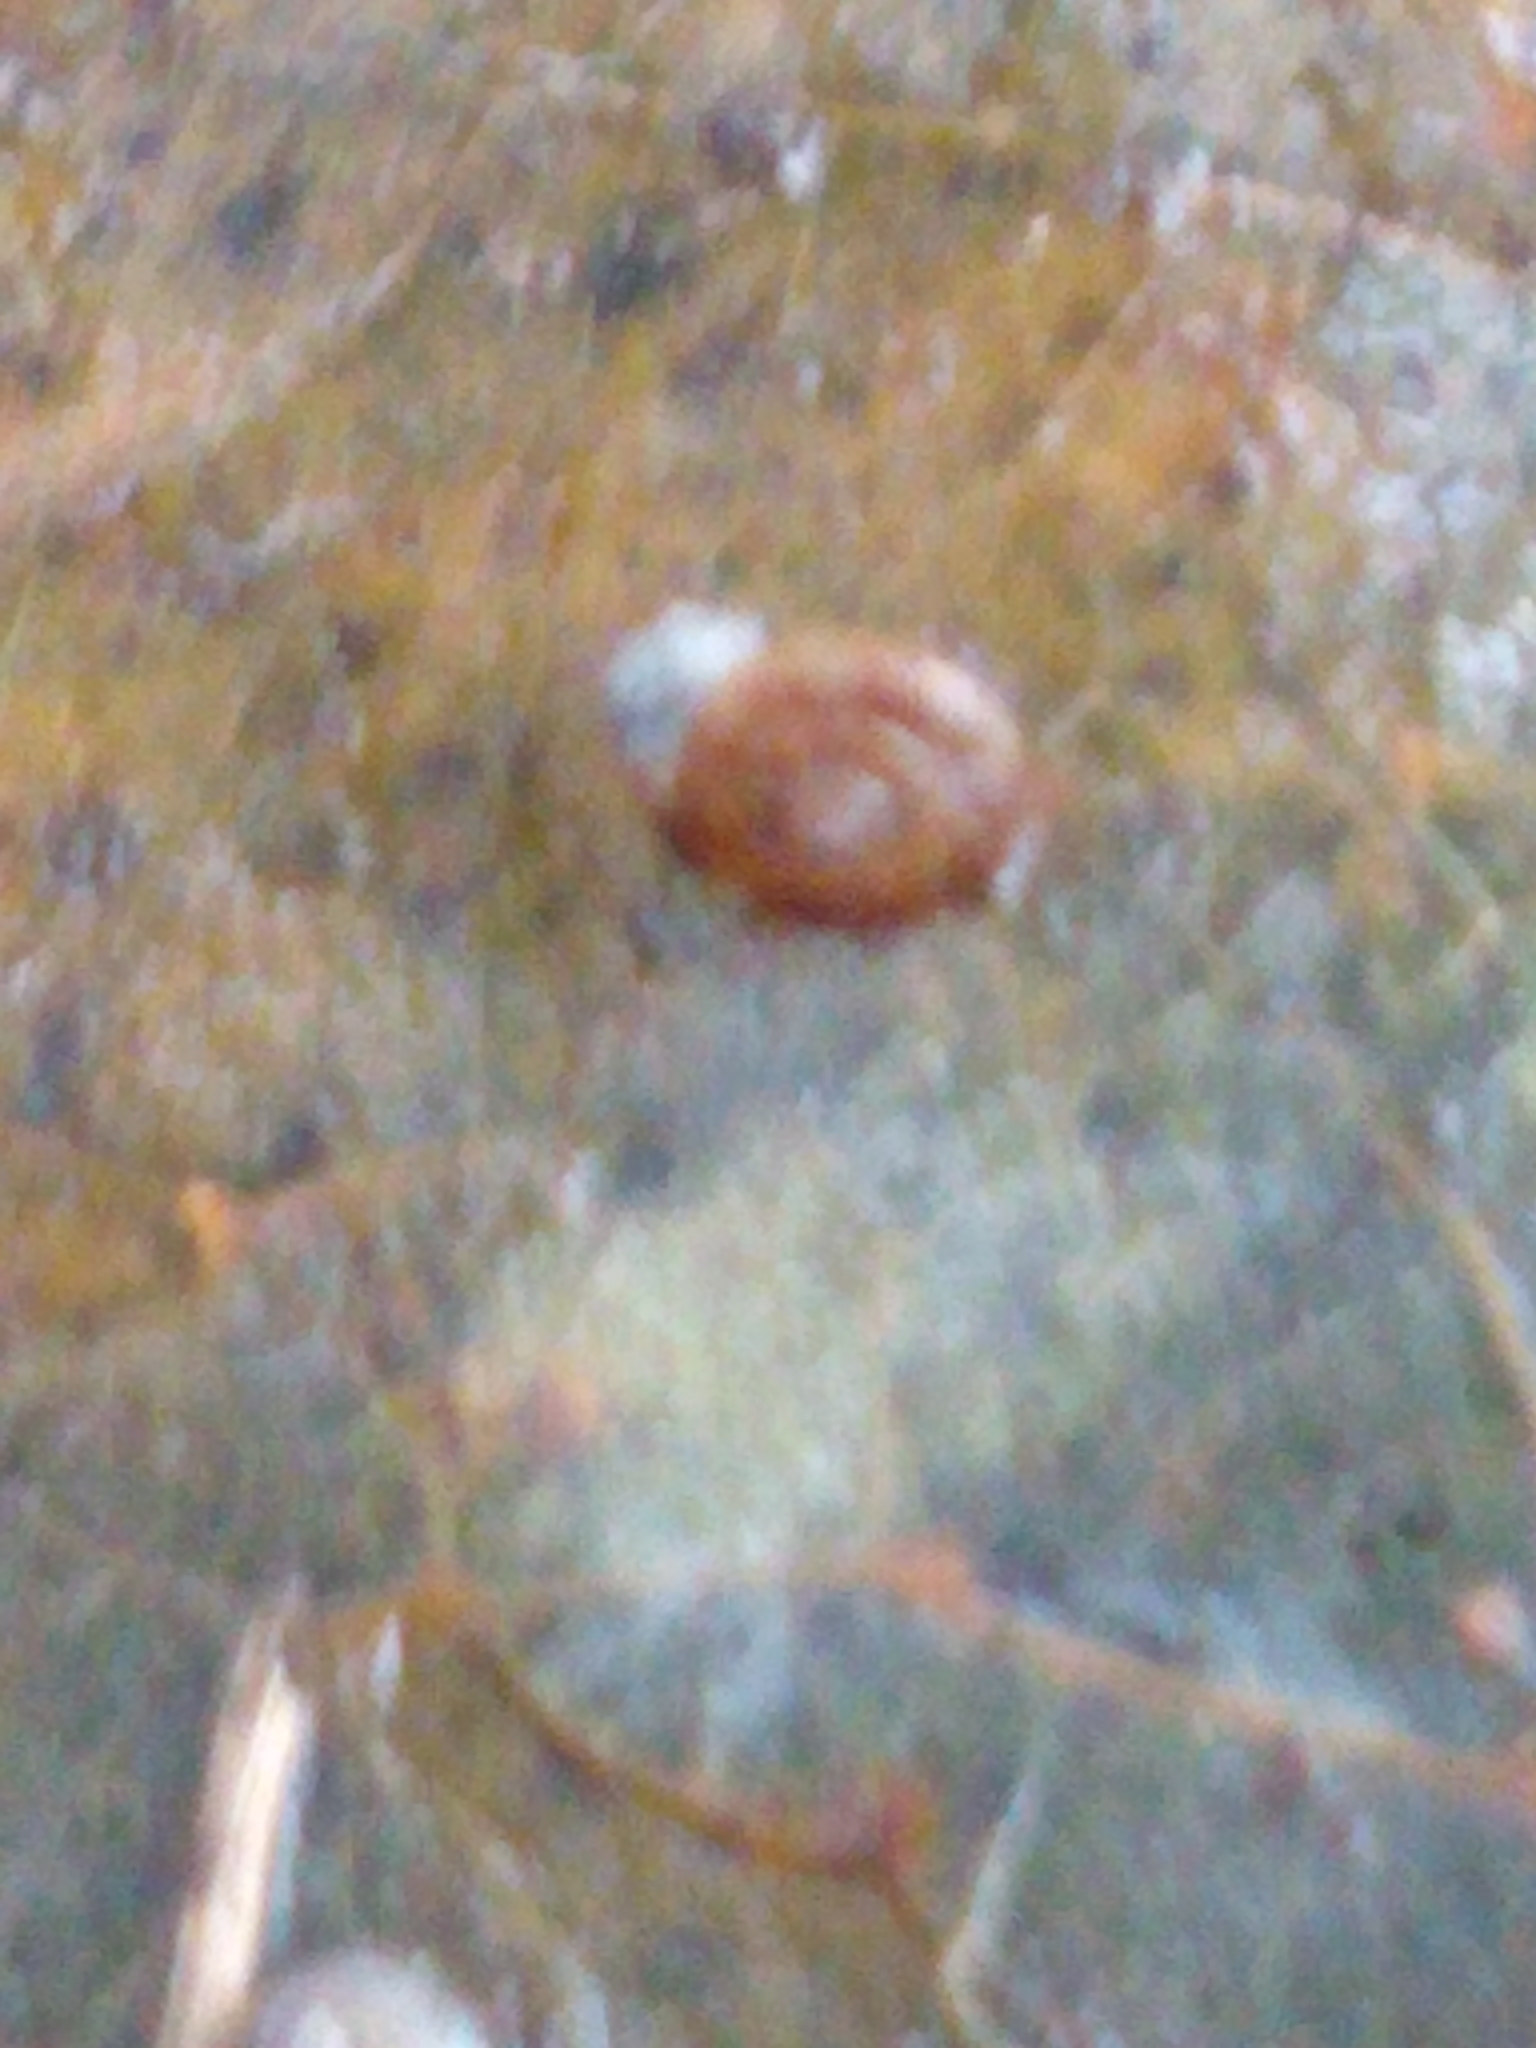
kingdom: Animalia
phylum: Mollusca
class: Gastropoda
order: Stylommatophora
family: Discidae
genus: Discus
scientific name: Discus rotundatus
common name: Rounded snail
